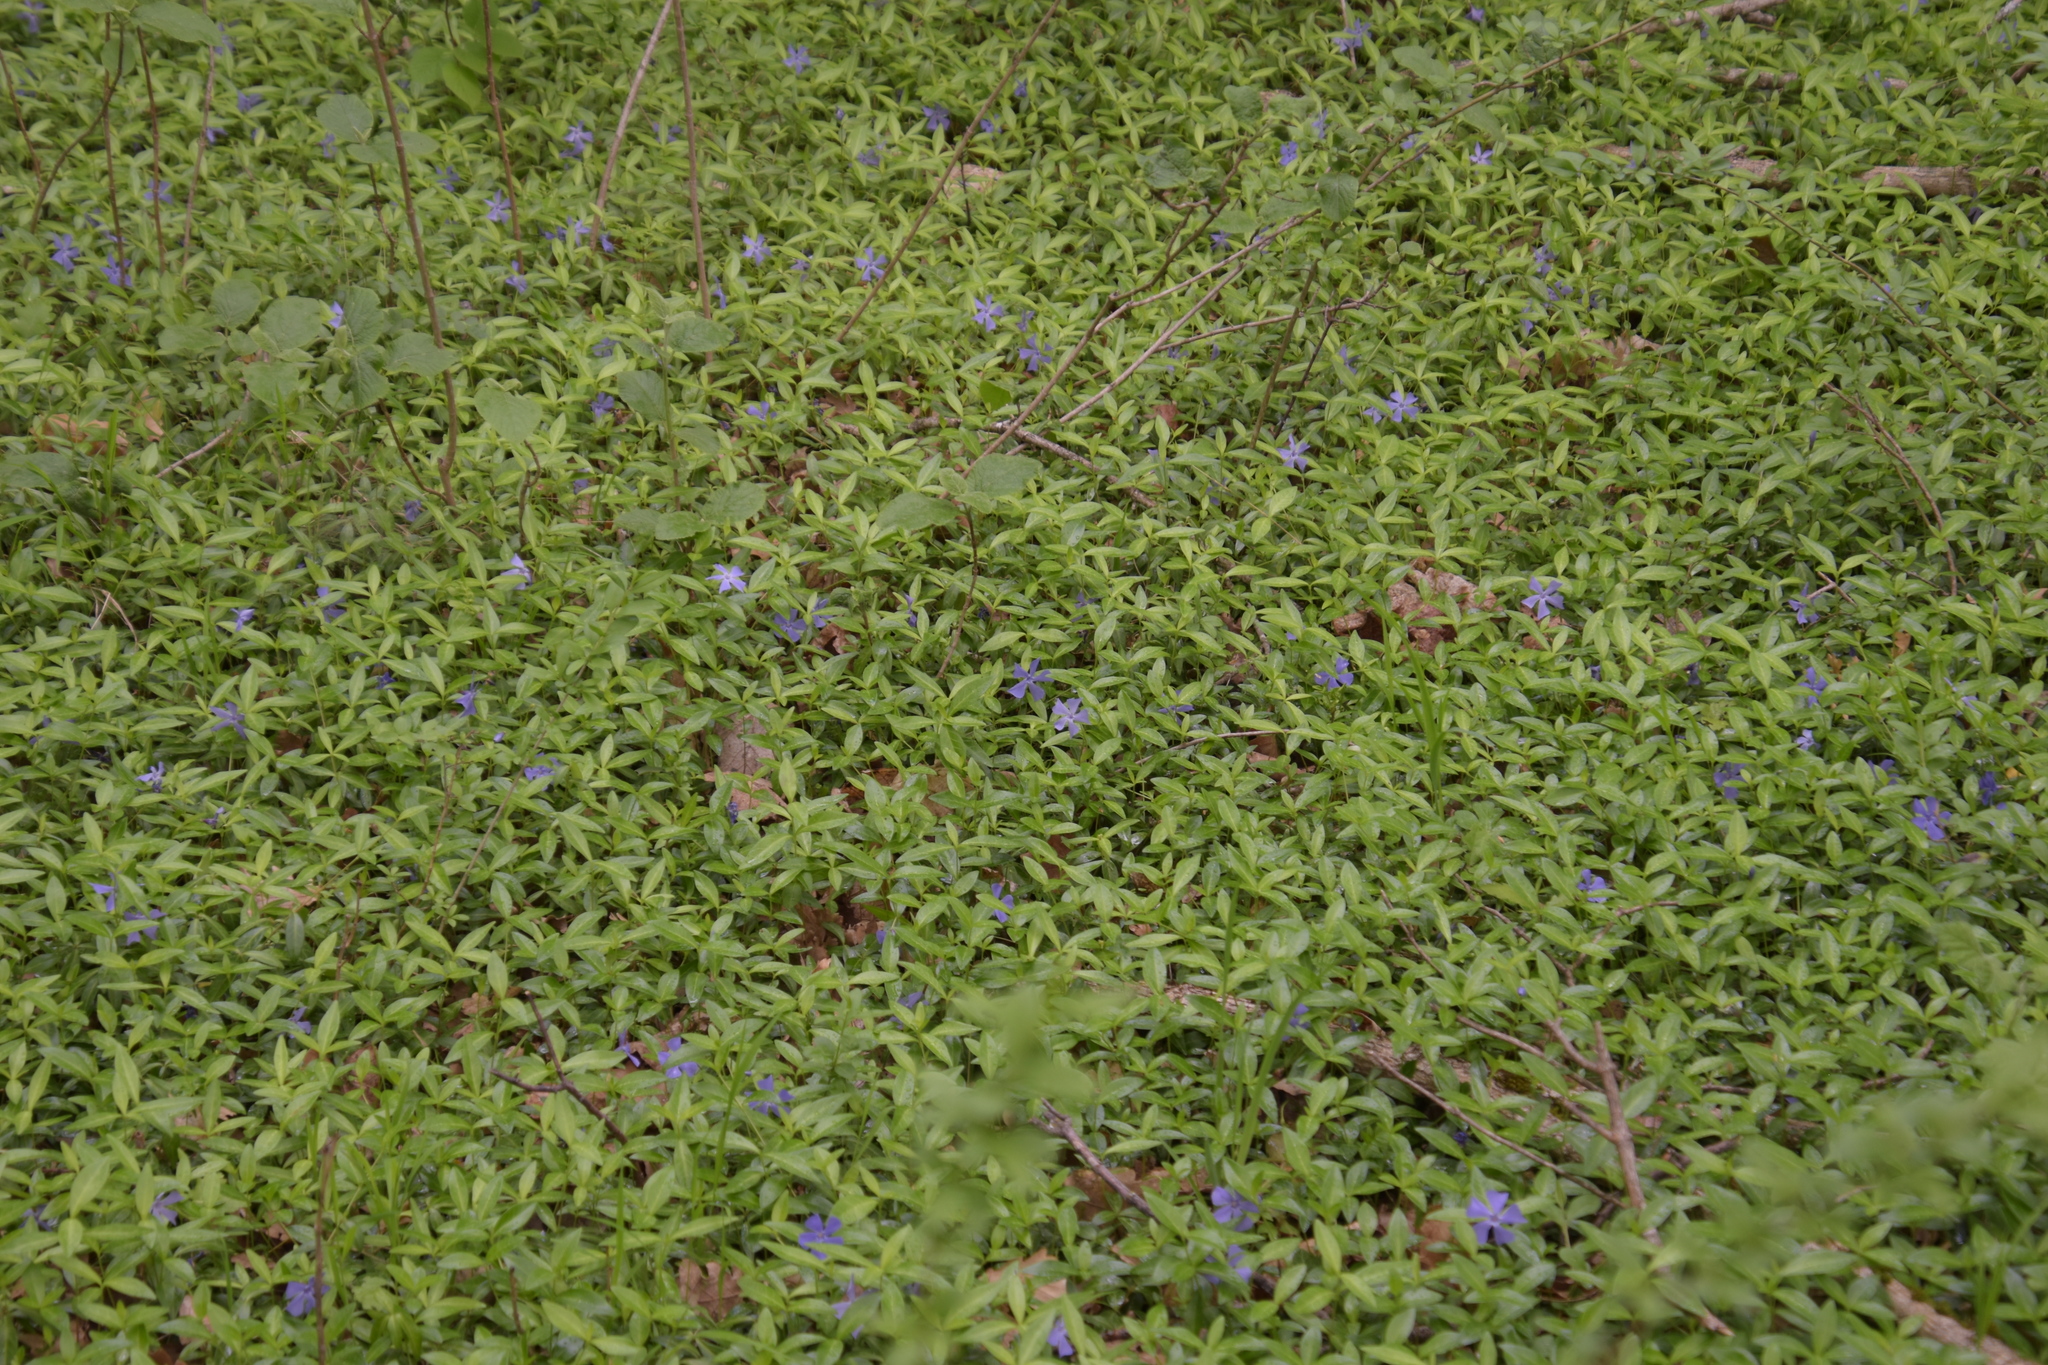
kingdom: Plantae
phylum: Tracheophyta
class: Magnoliopsida
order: Gentianales
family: Apocynaceae
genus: Vinca
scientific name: Vinca minor
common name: Lesser periwinkle
